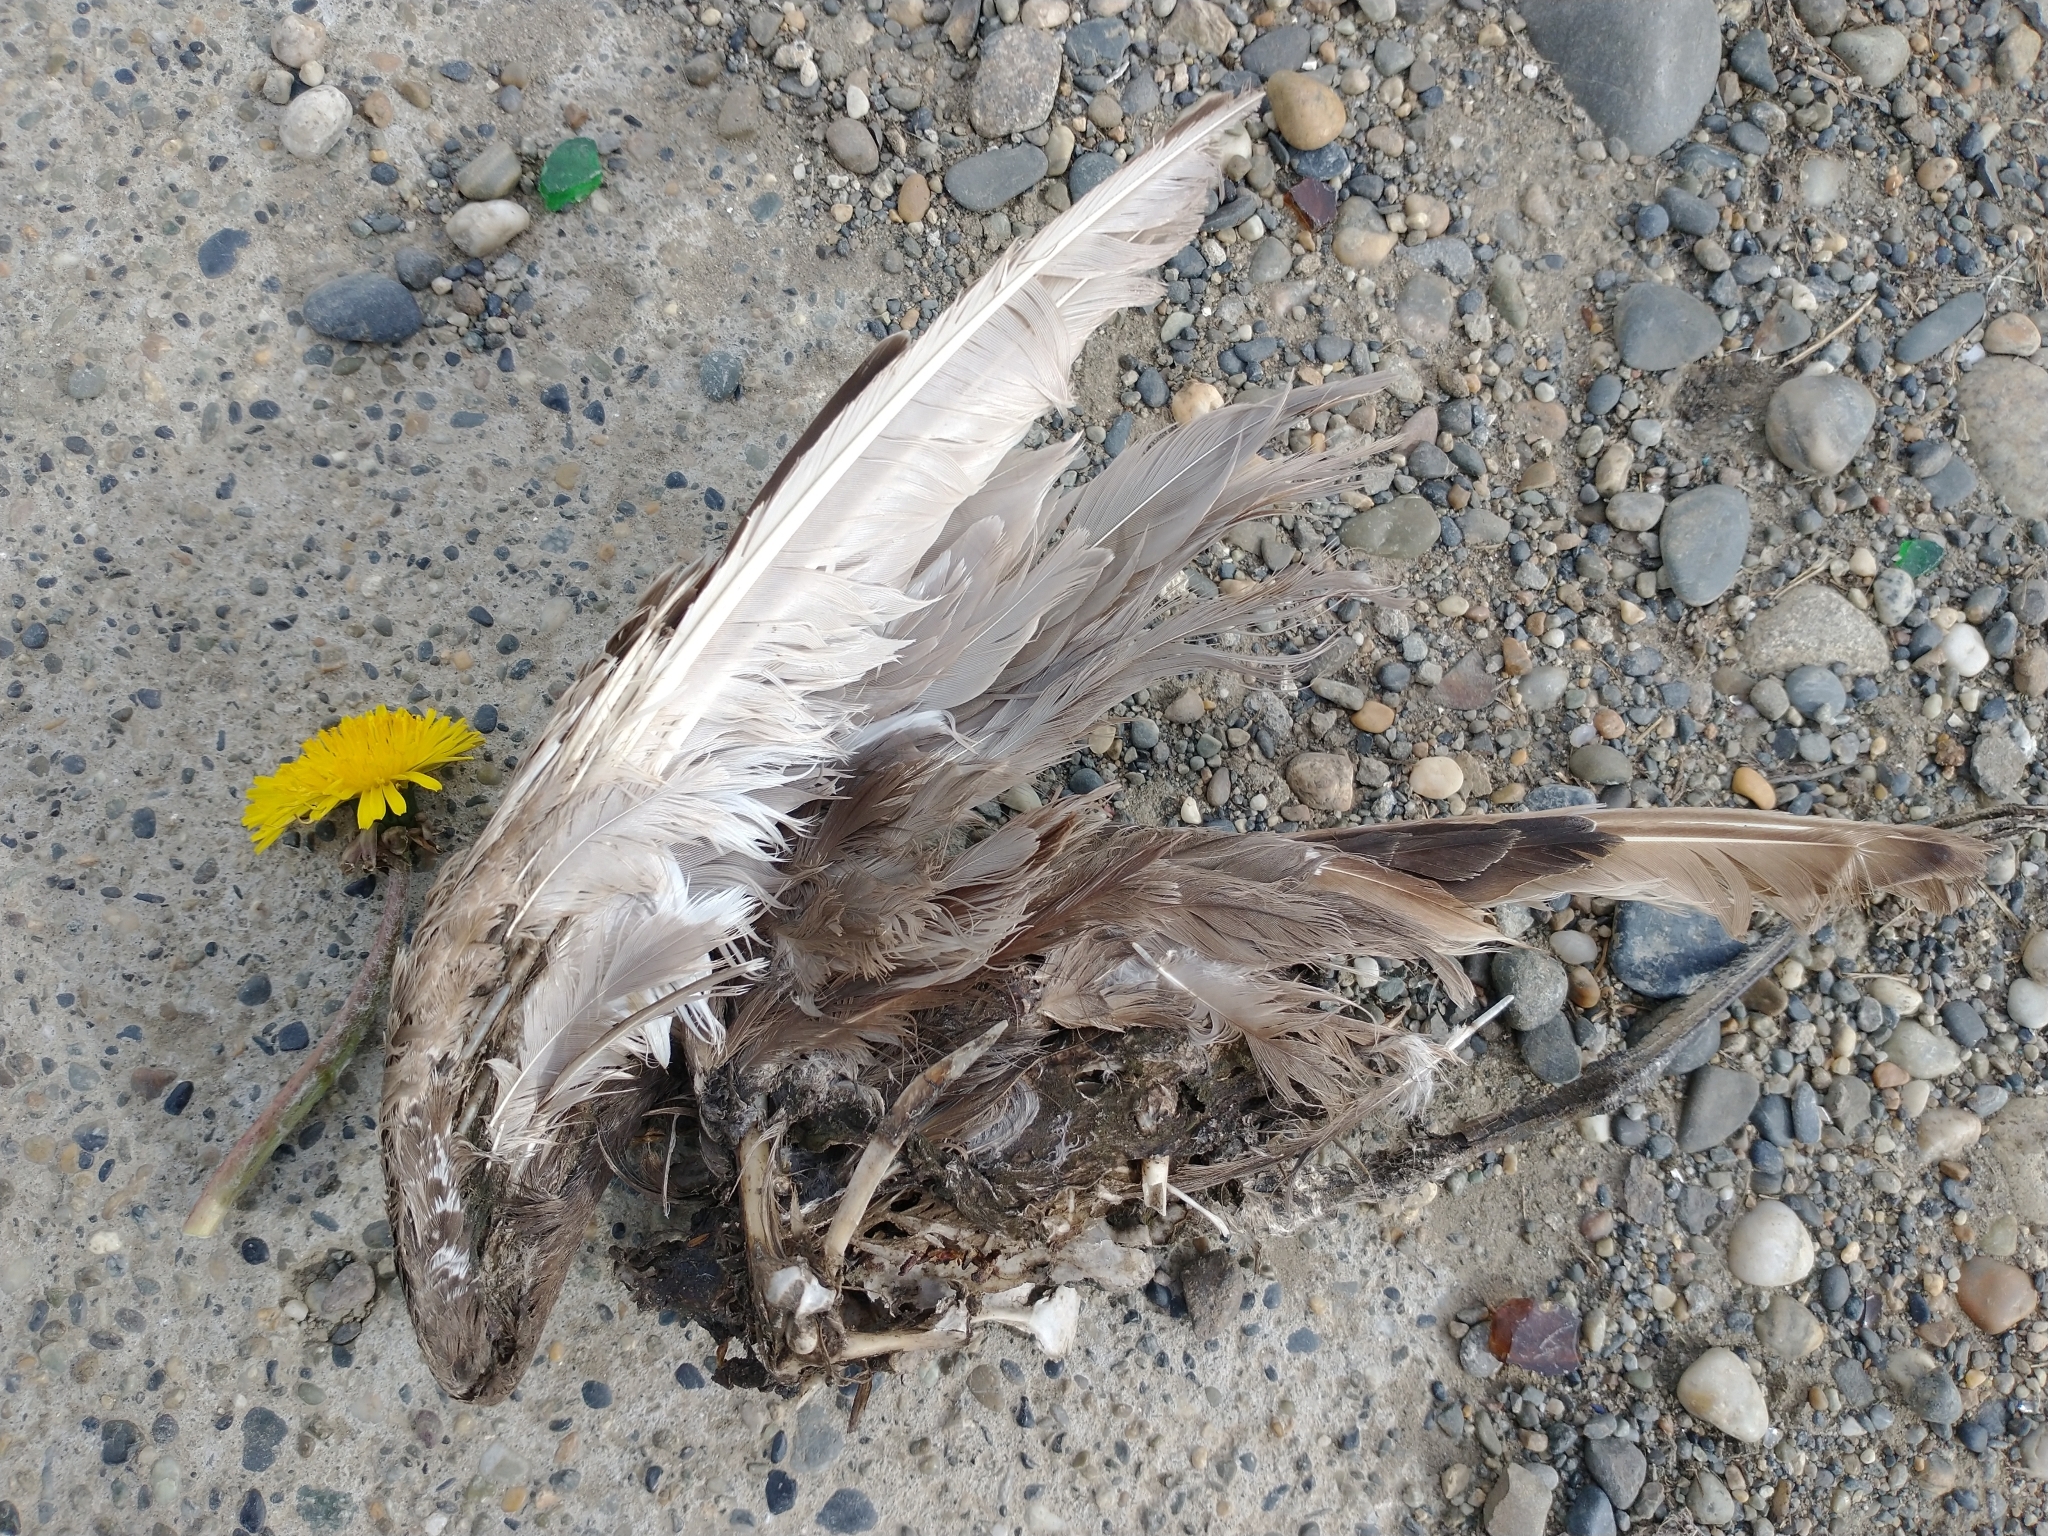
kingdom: Animalia
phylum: Chordata
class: Aves
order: Charadriiformes
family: Scolopacidae
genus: Limosa
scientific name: Limosa haemastica
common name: Hudsonian godwit
